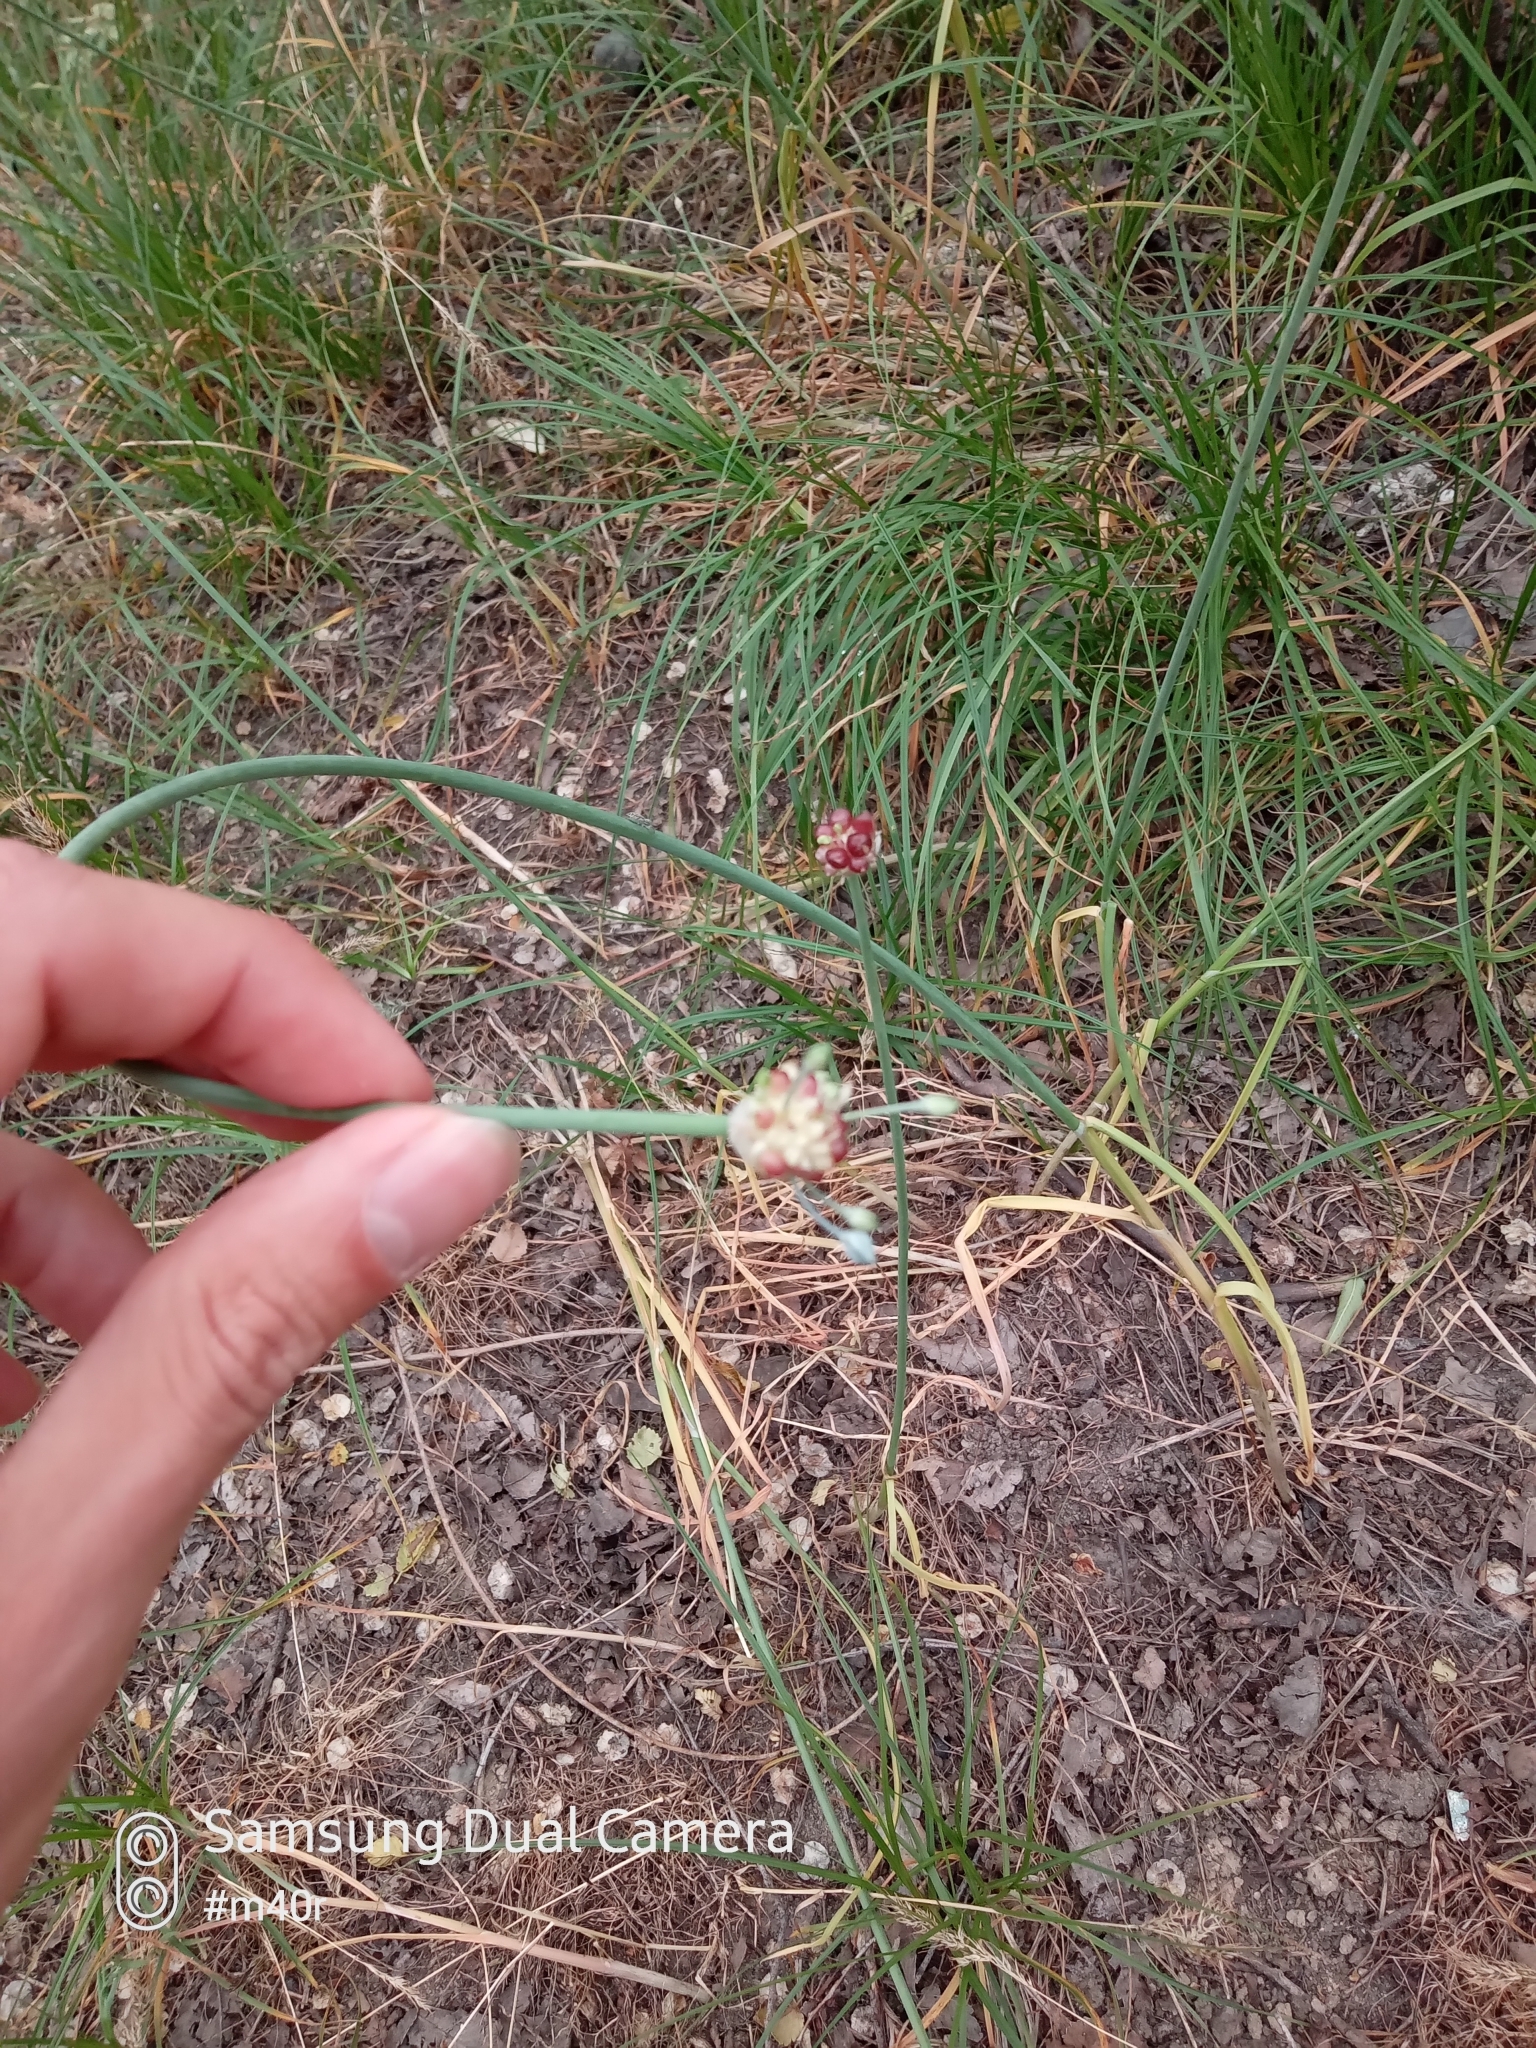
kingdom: Plantae
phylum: Tracheophyta
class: Liliopsida
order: Asparagales
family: Amaryllidaceae
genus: Allium
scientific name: Allium caeruleum
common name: Blue-of-the-heavens
